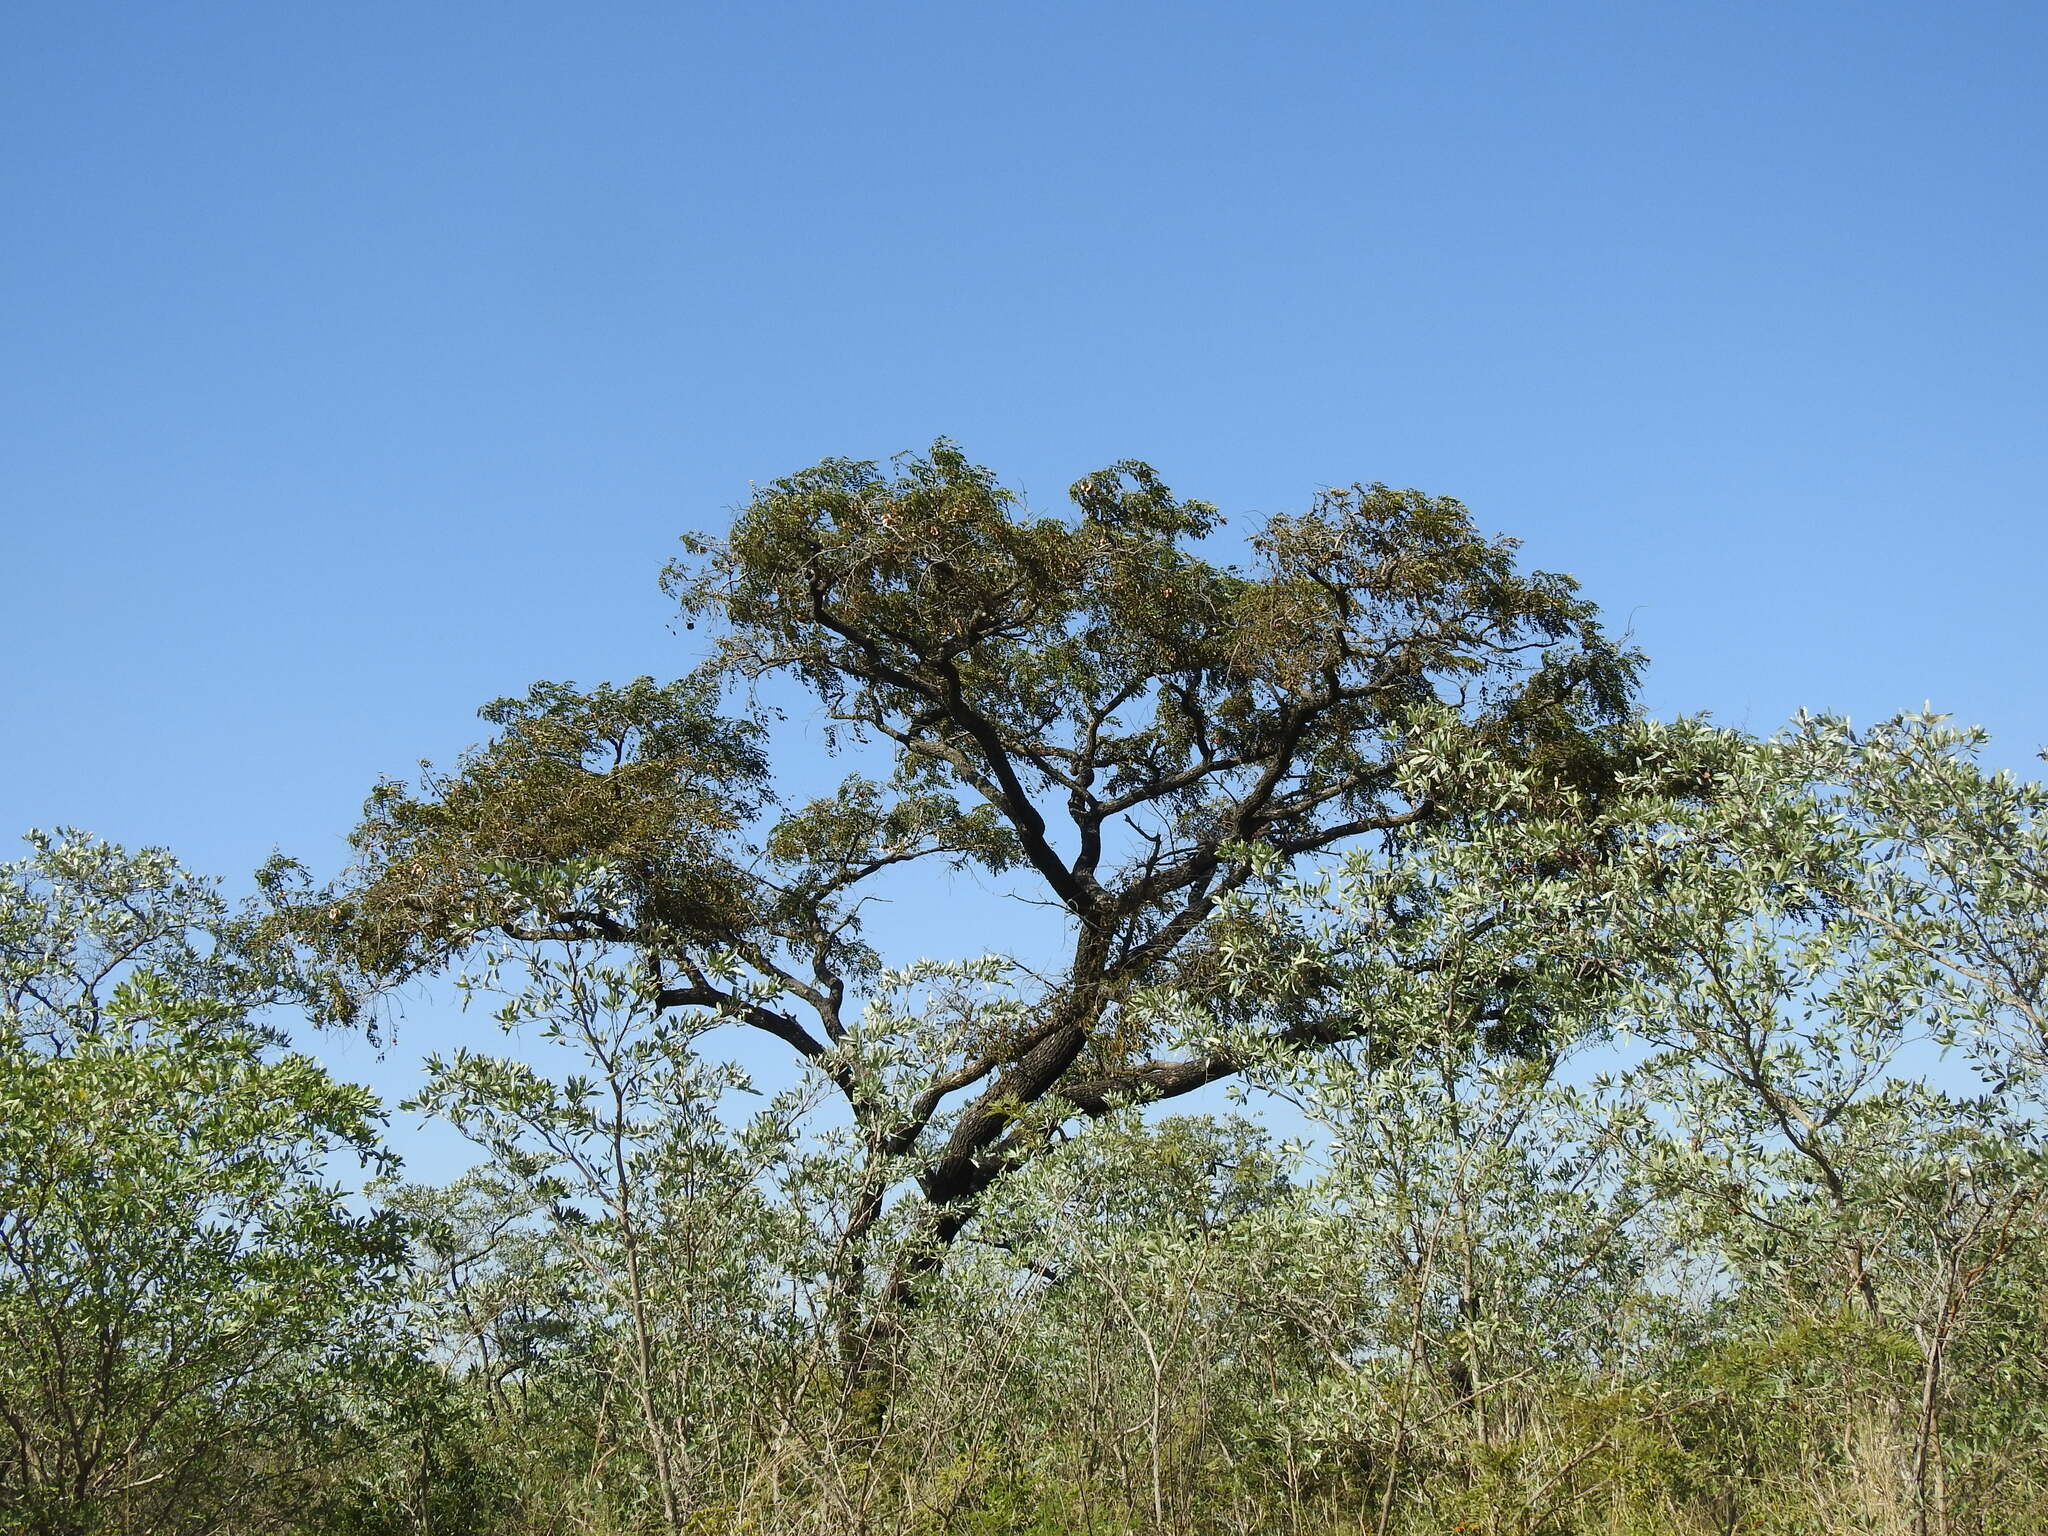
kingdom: Plantae
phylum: Tracheophyta
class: Magnoliopsida
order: Fabales
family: Fabaceae
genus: Pterocarpus
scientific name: Pterocarpus angolensis
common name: Bloodwood tree
